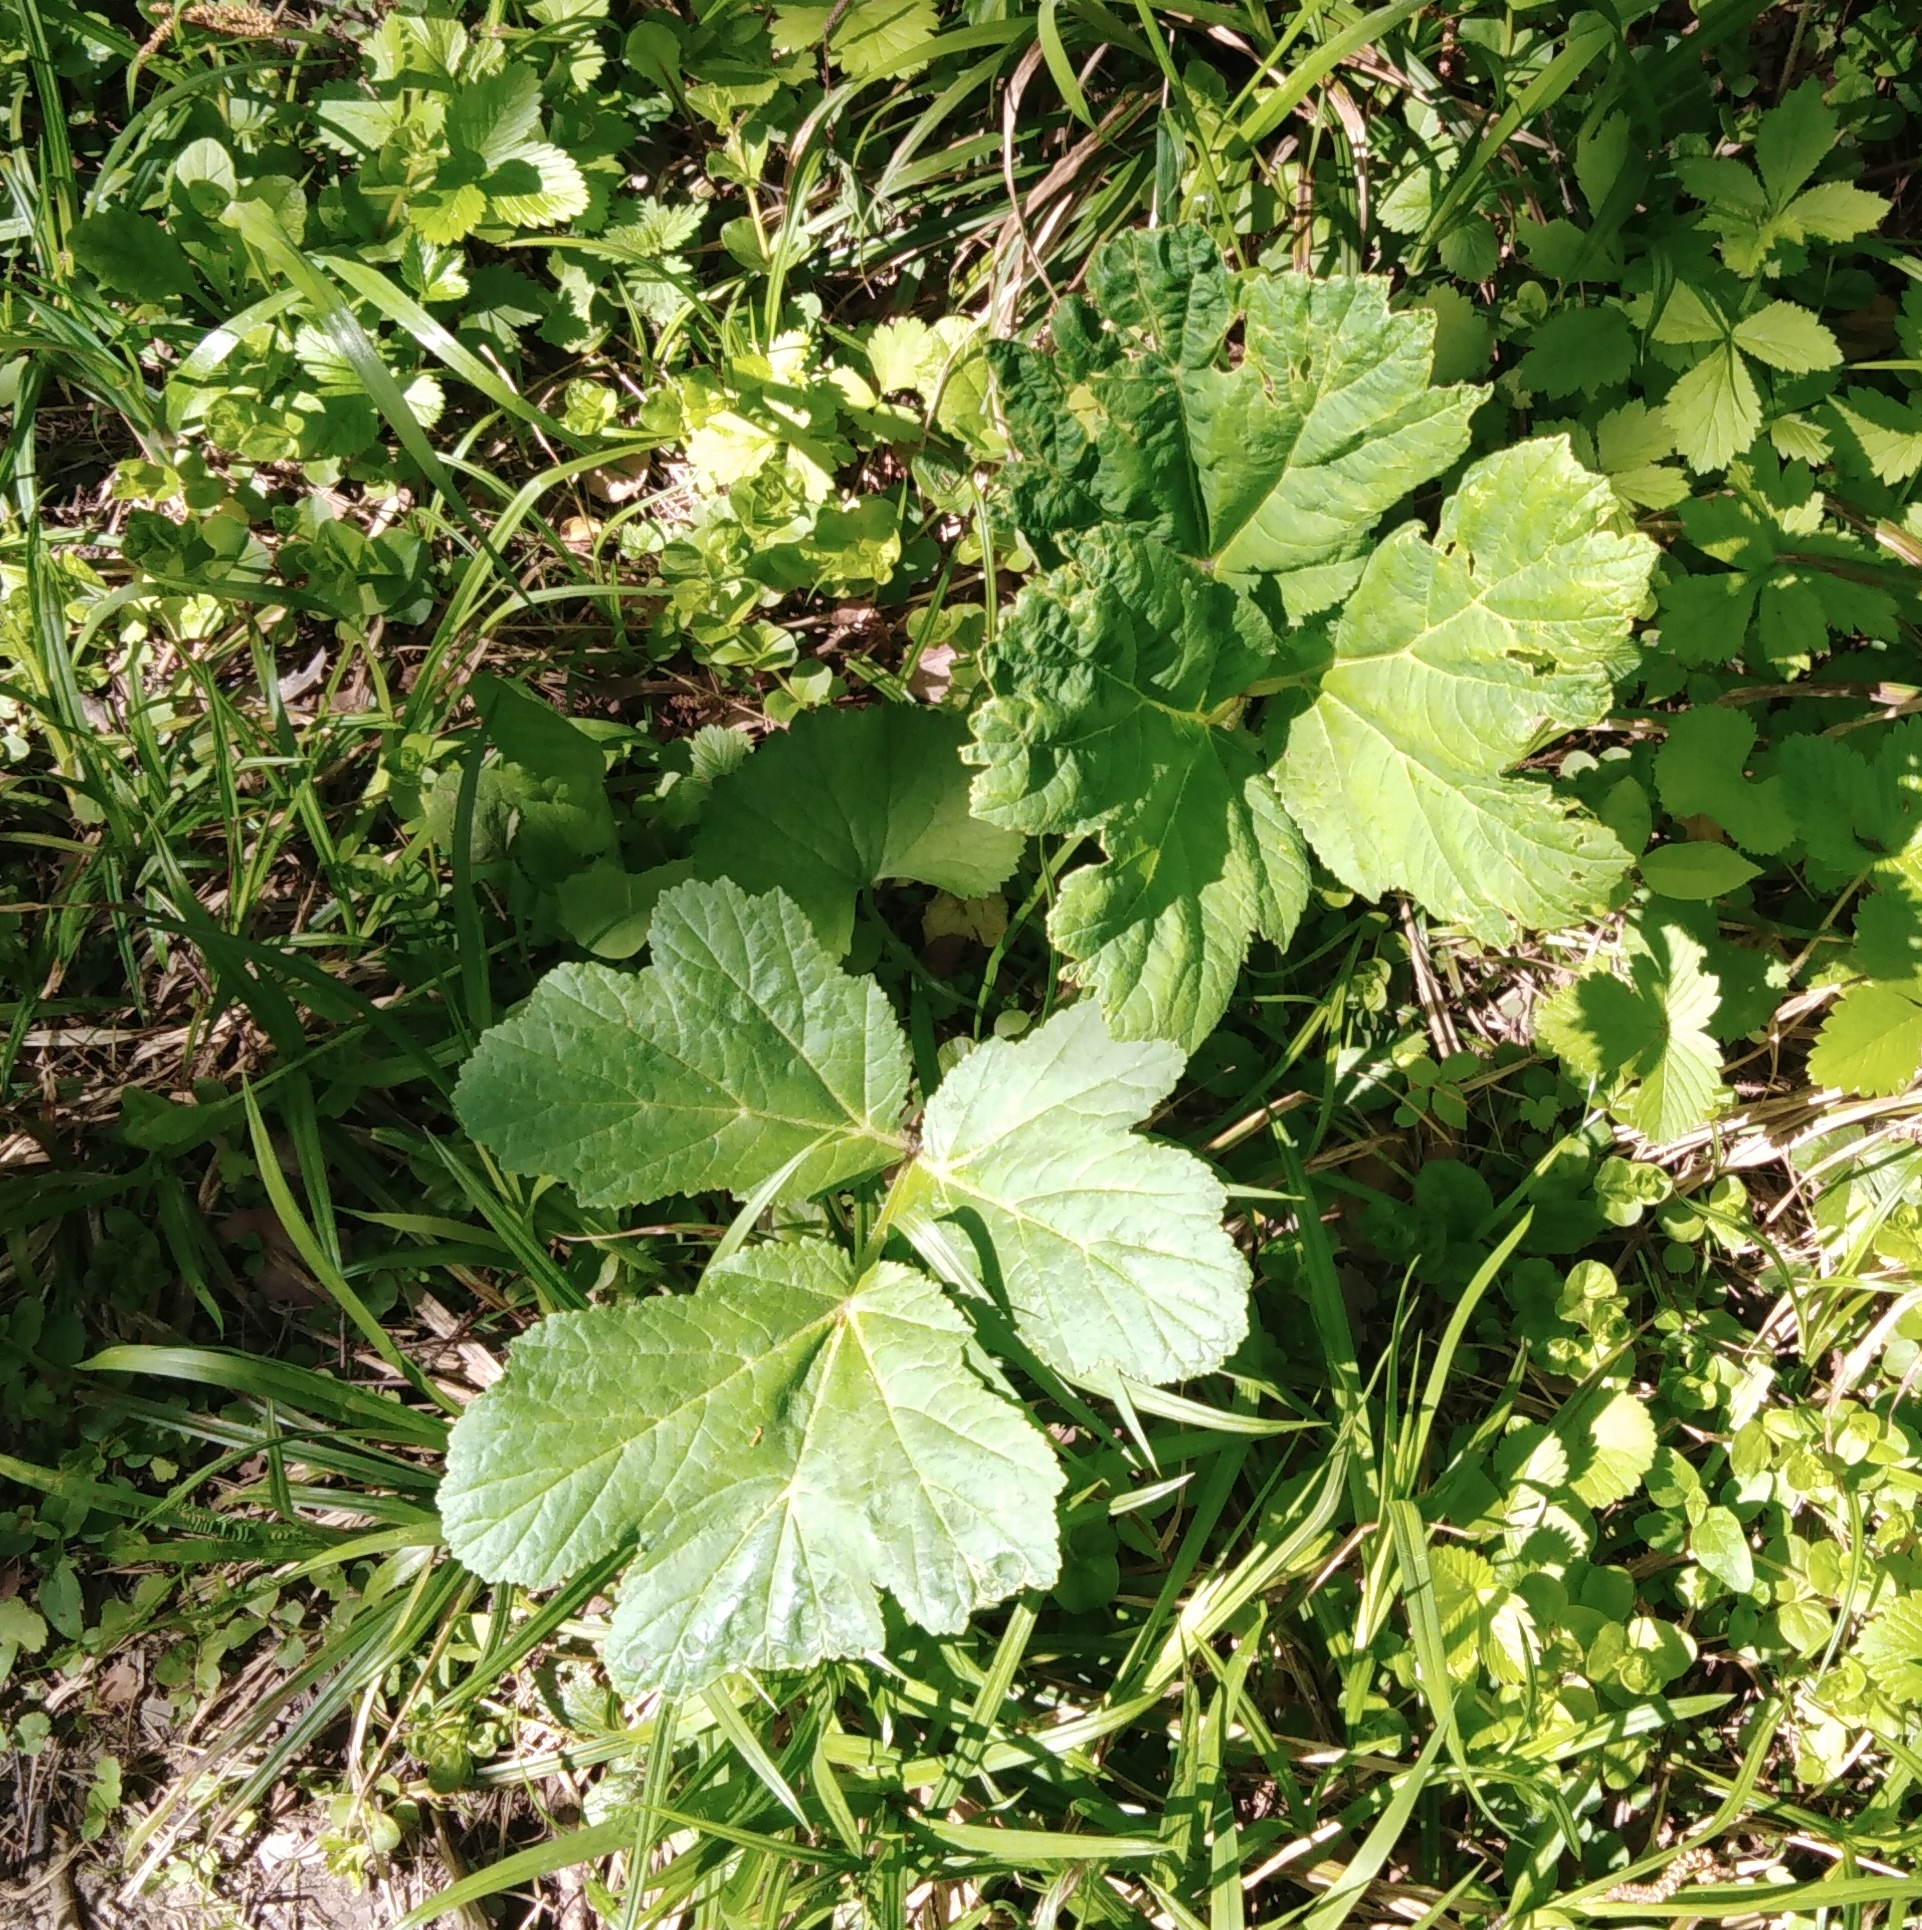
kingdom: Plantae
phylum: Tracheophyta
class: Magnoliopsida
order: Apiales
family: Apiaceae
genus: Heracleum
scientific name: Heracleum sphondylium
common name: Hogweed
